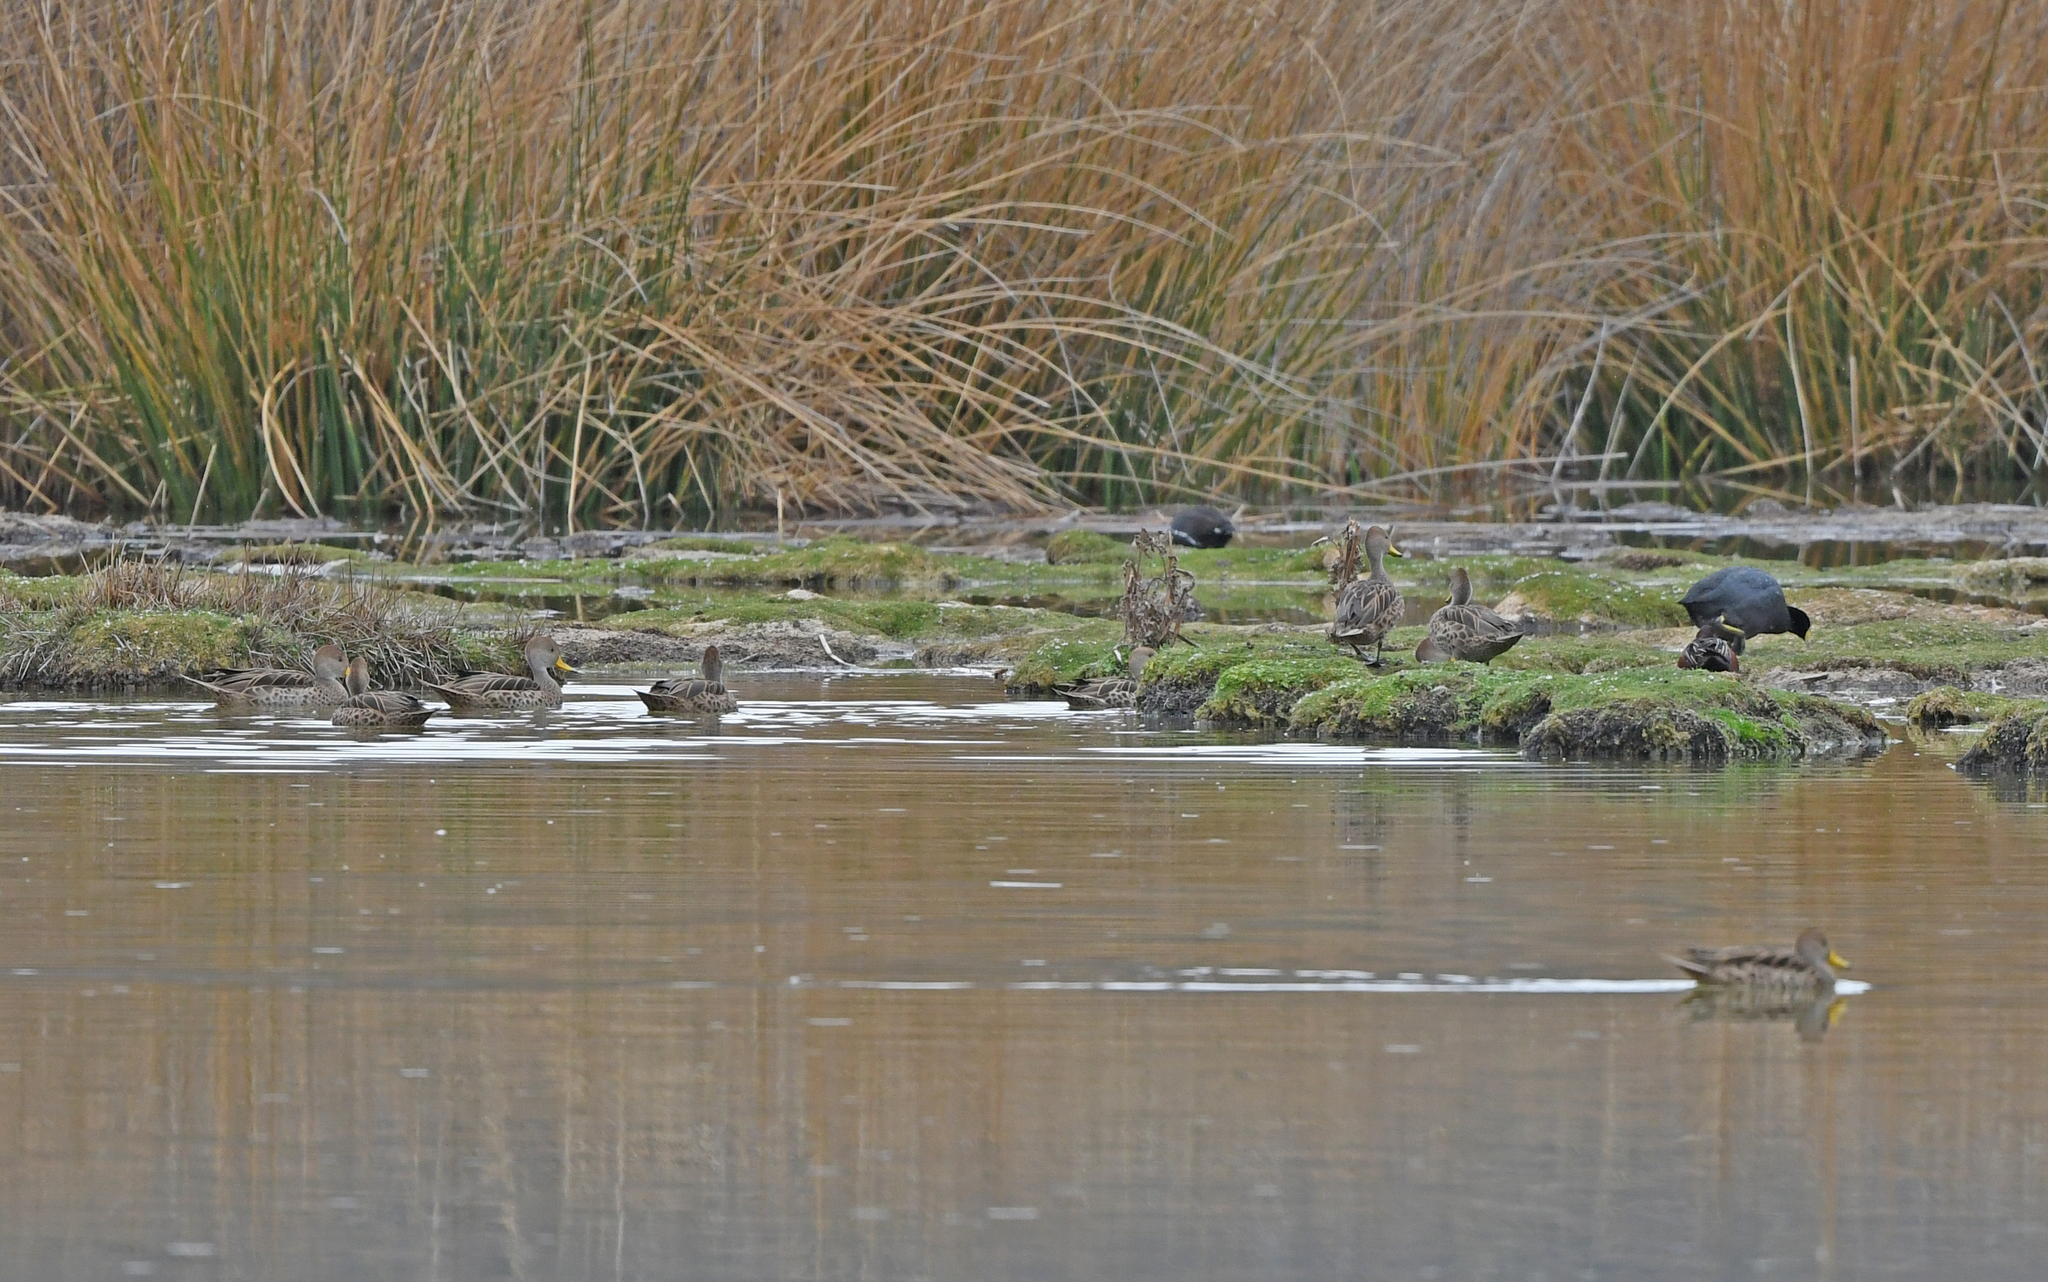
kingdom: Animalia
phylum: Chordata
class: Aves
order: Anseriformes
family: Anatidae
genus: Anas
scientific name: Anas georgica
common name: Yellow-billed pintail
